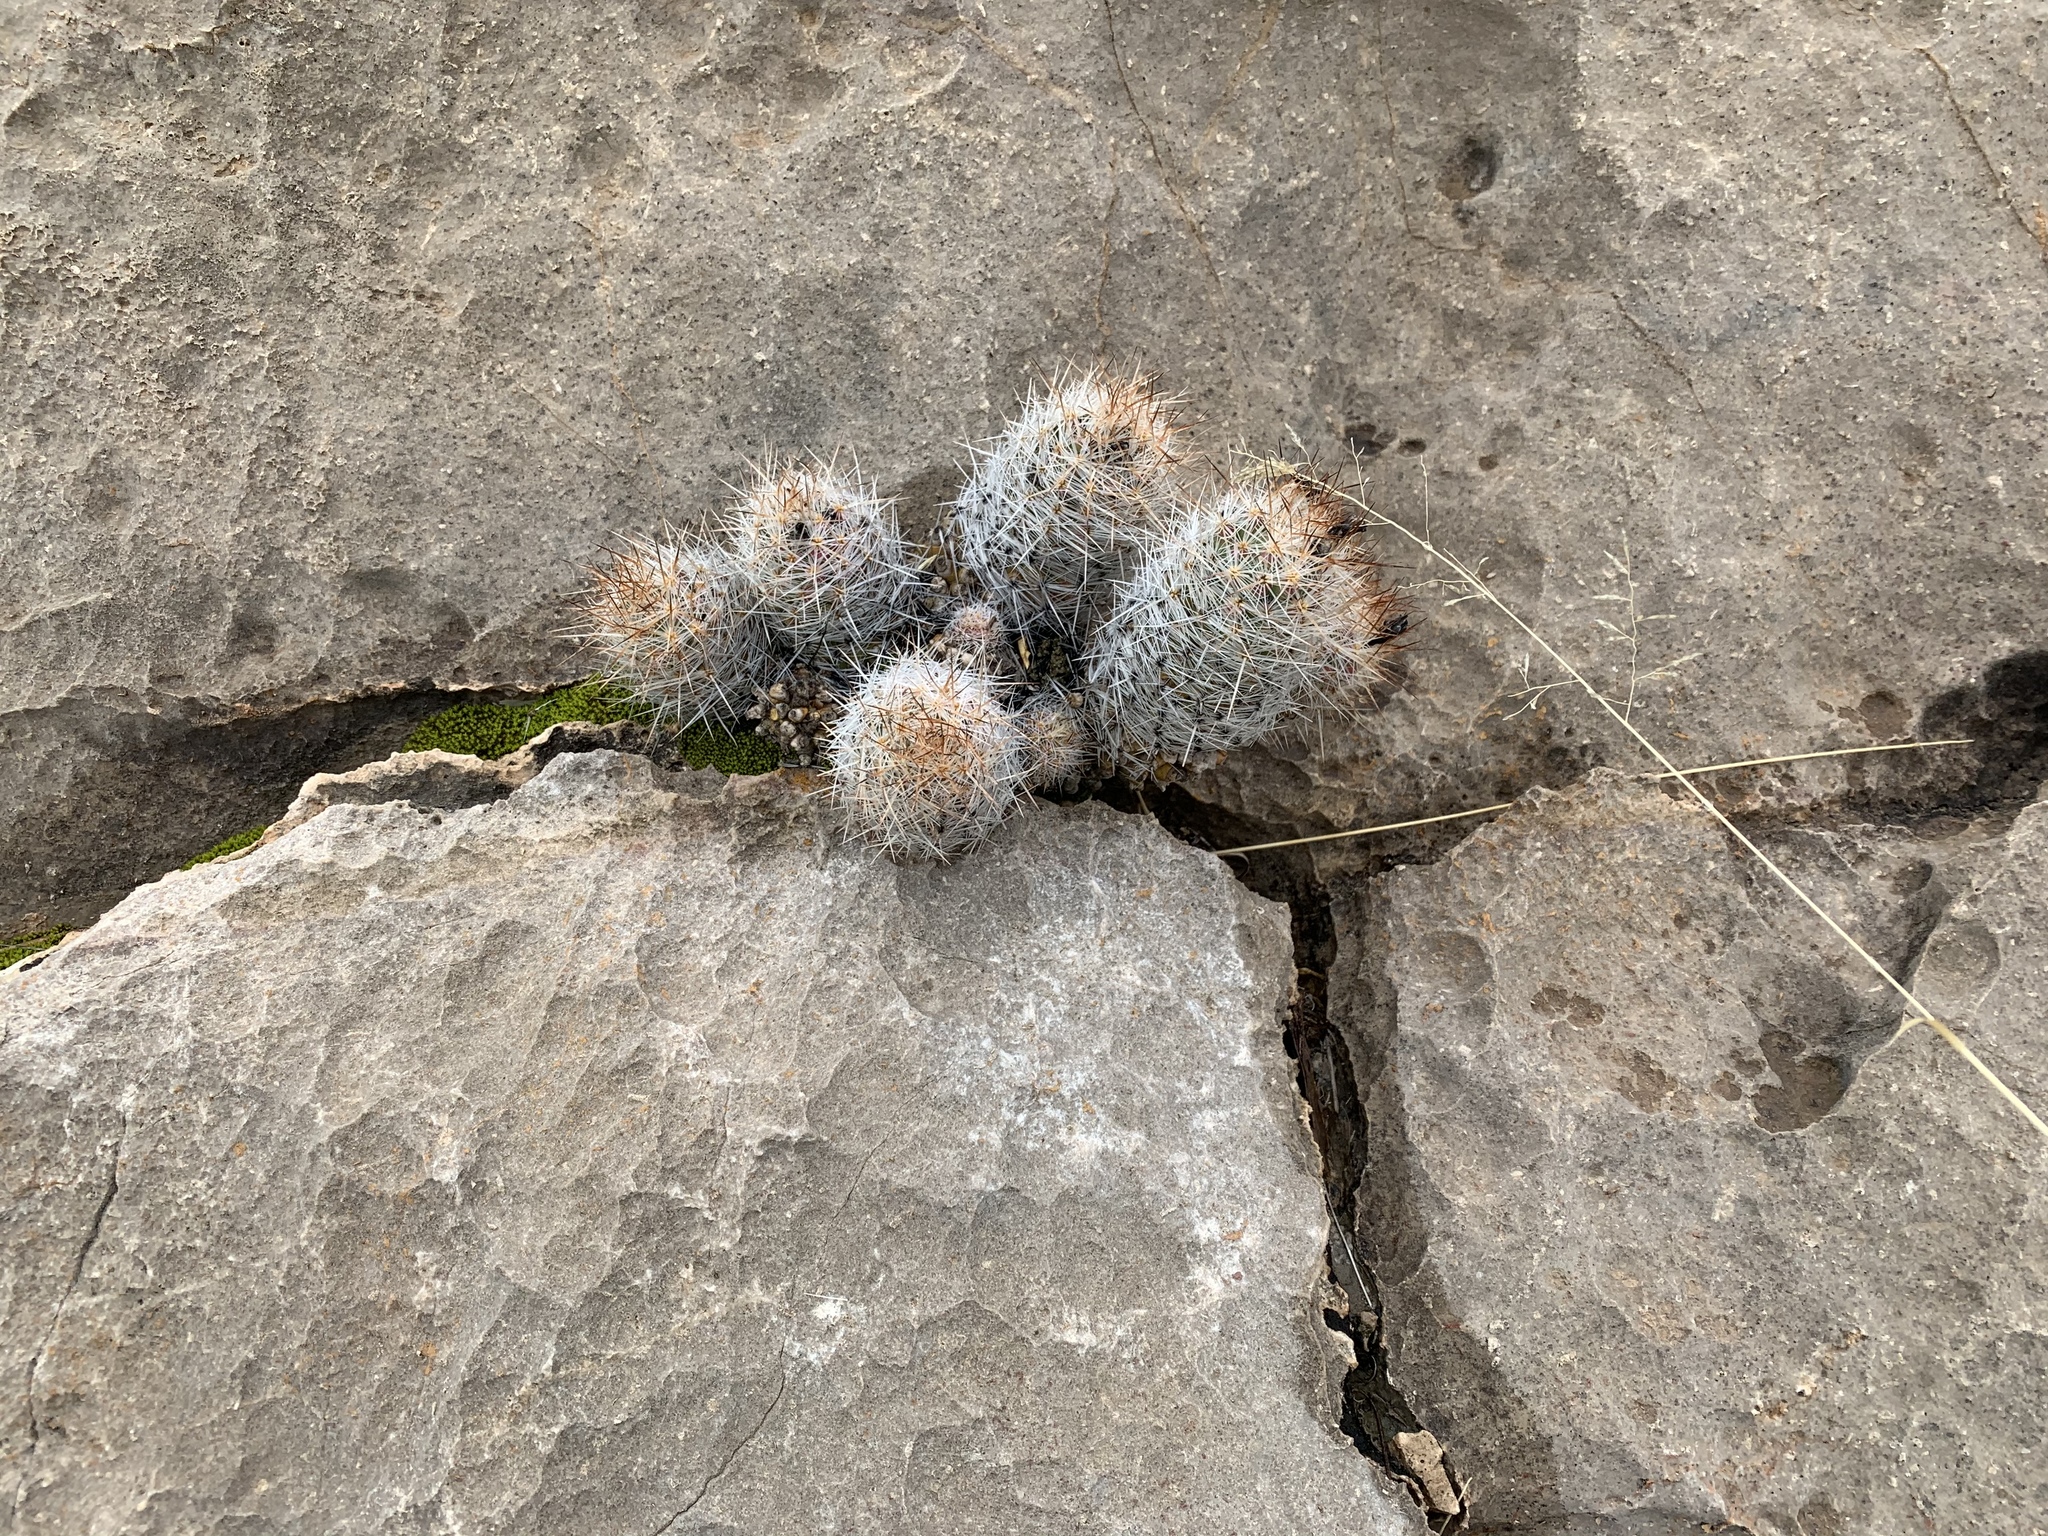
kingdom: Plantae
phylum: Tracheophyta
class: Magnoliopsida
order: Caryophyllales
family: Cactaceae
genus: Pelecyphora
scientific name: Pelecyphora tuberculosa
